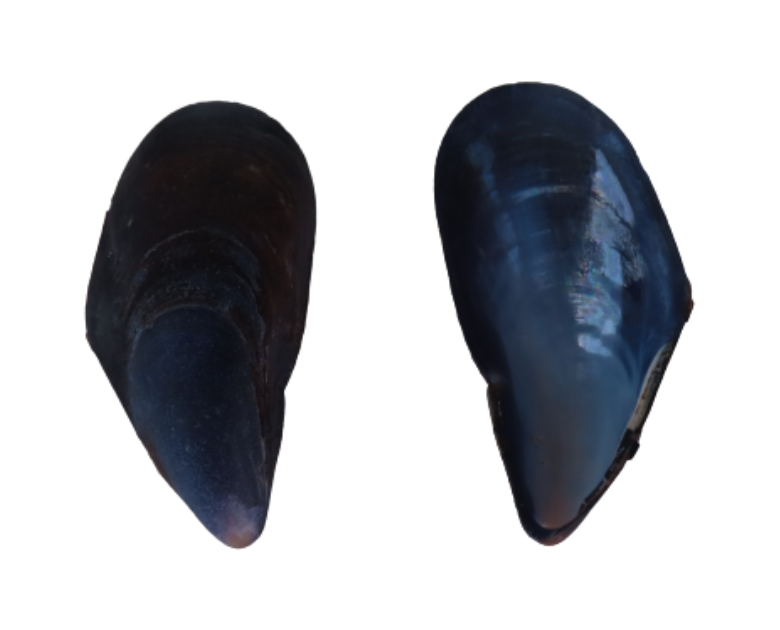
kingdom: Animalia
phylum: Mollusca
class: Bivalvia
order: Mytilida
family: Mytilidae
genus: Mytilus
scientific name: Mytilus edulis
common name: Blue mussel
